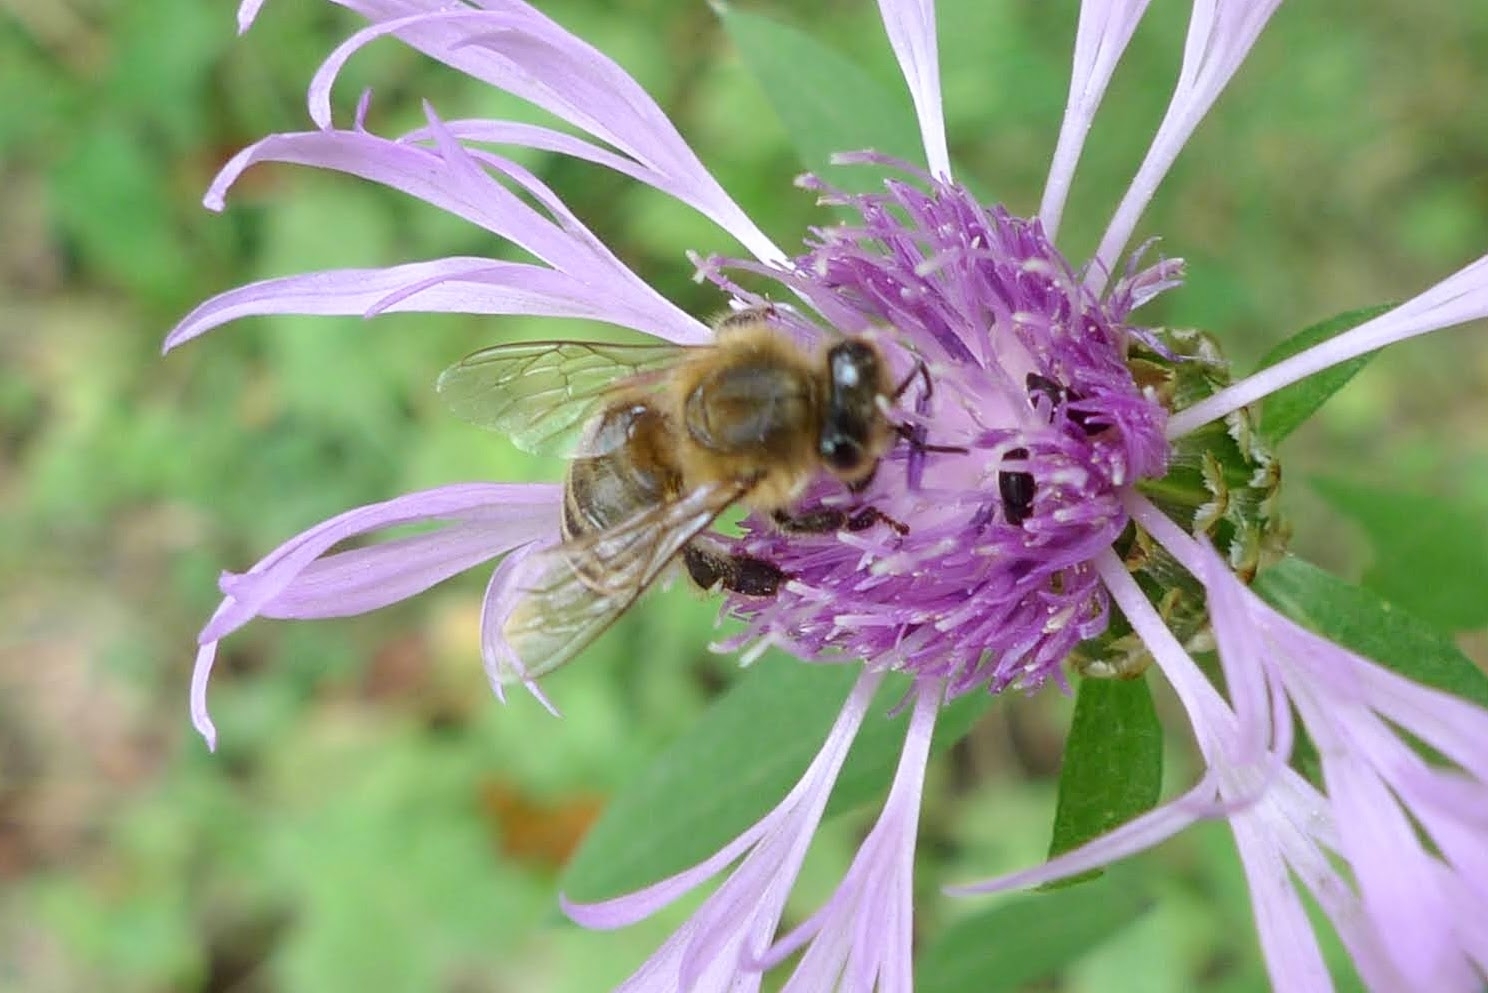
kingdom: Animalia
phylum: Arthropoda
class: Insecta
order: Hymenoptera
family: Apidae
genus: Apis
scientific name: Apis mellifera
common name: Honey bee
